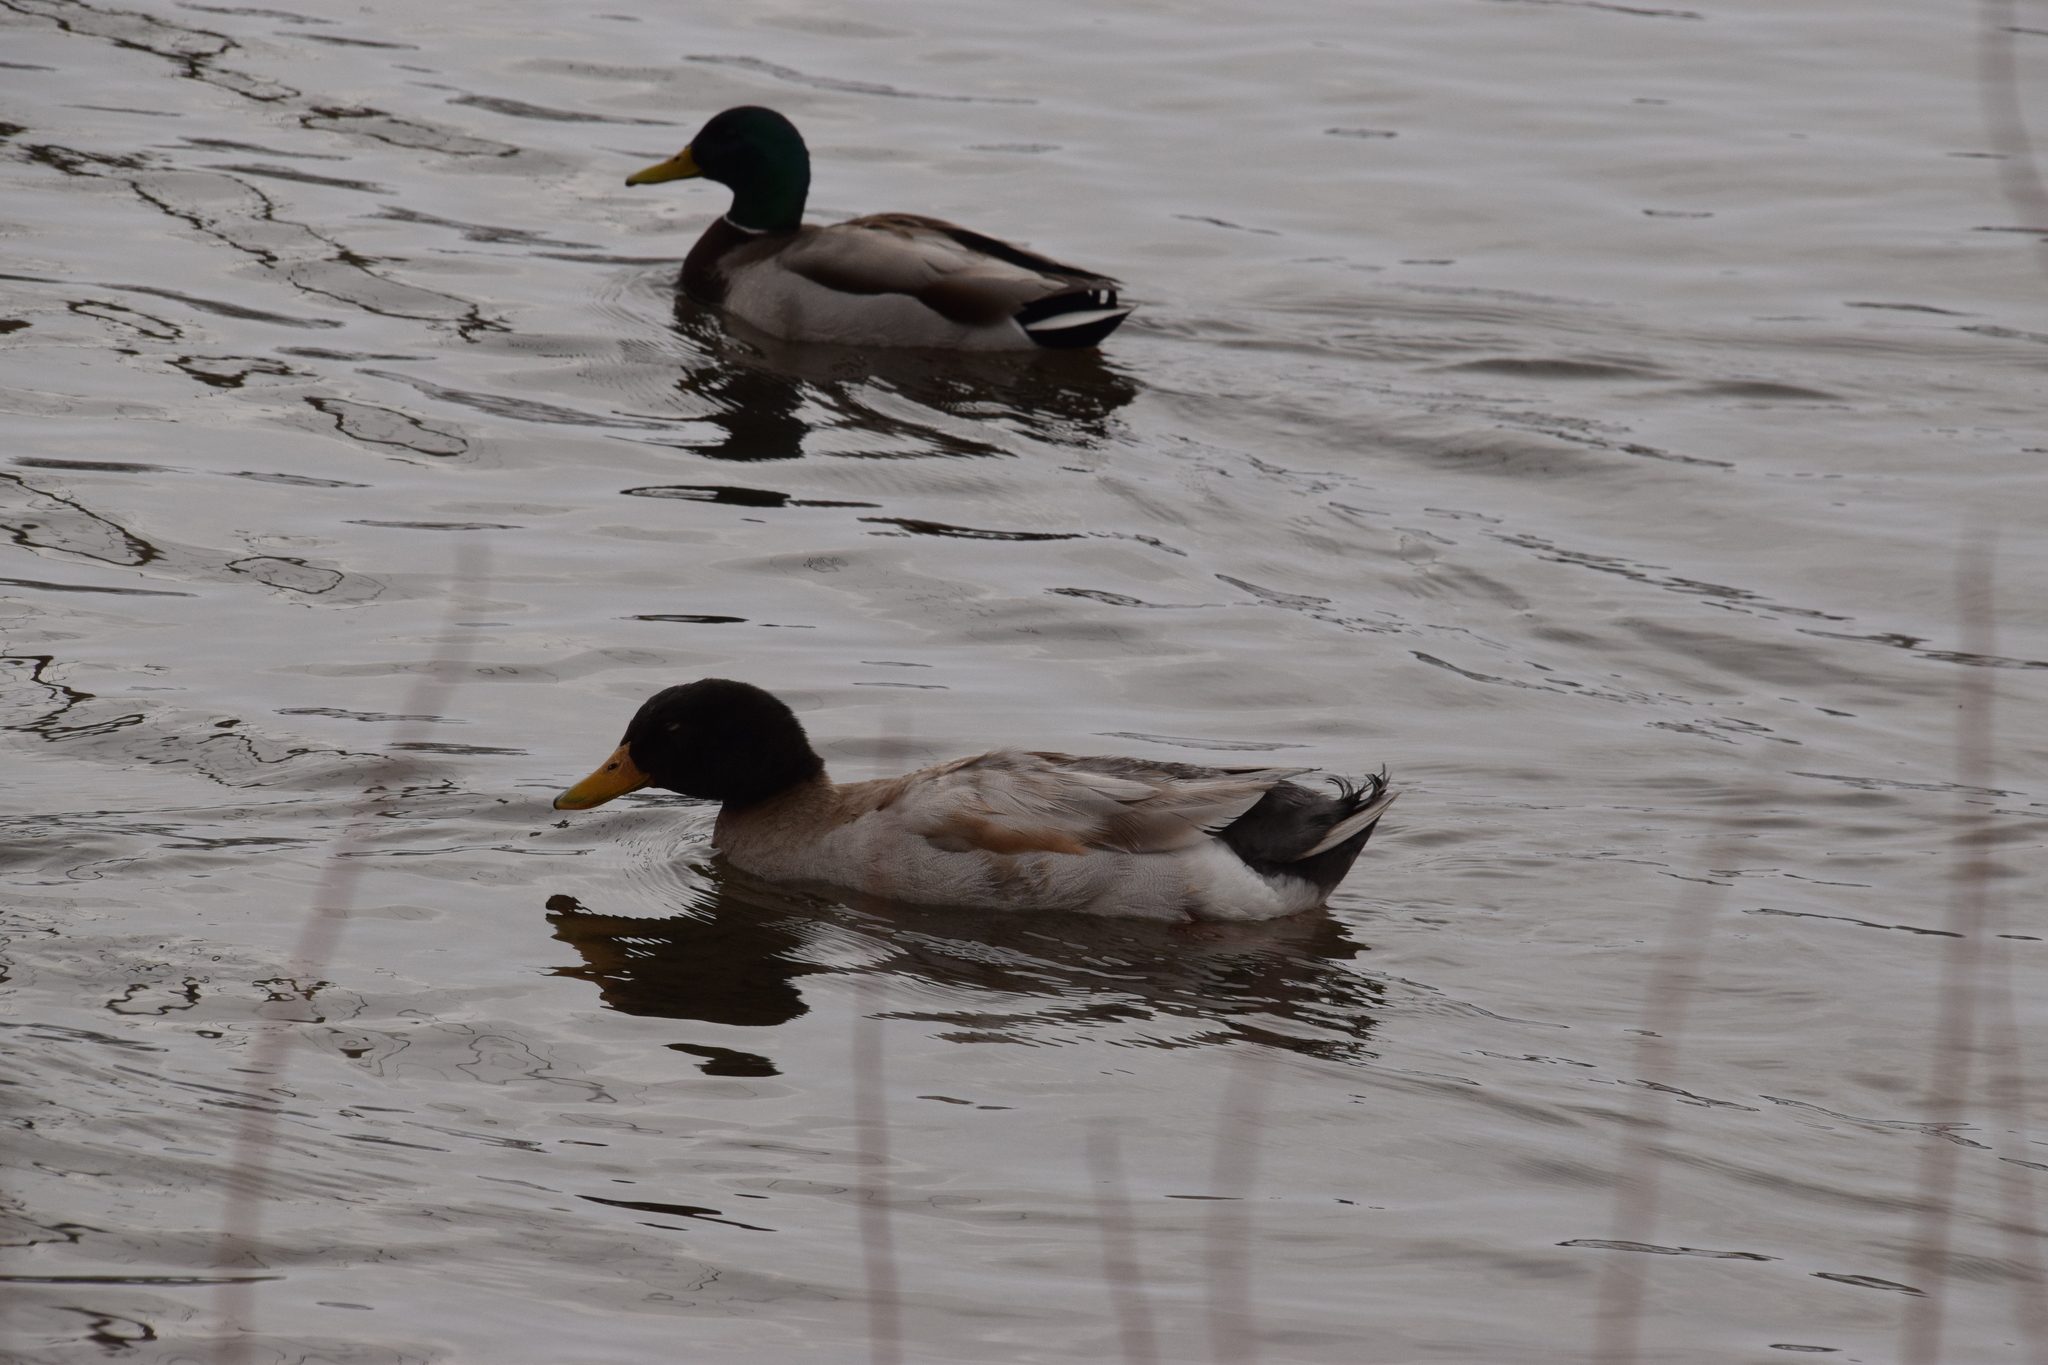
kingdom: Animalia
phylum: Chordata
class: Aves
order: Anseriformes
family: Anatidae
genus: Anas
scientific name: Anas platyrhynchos
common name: Mallard
